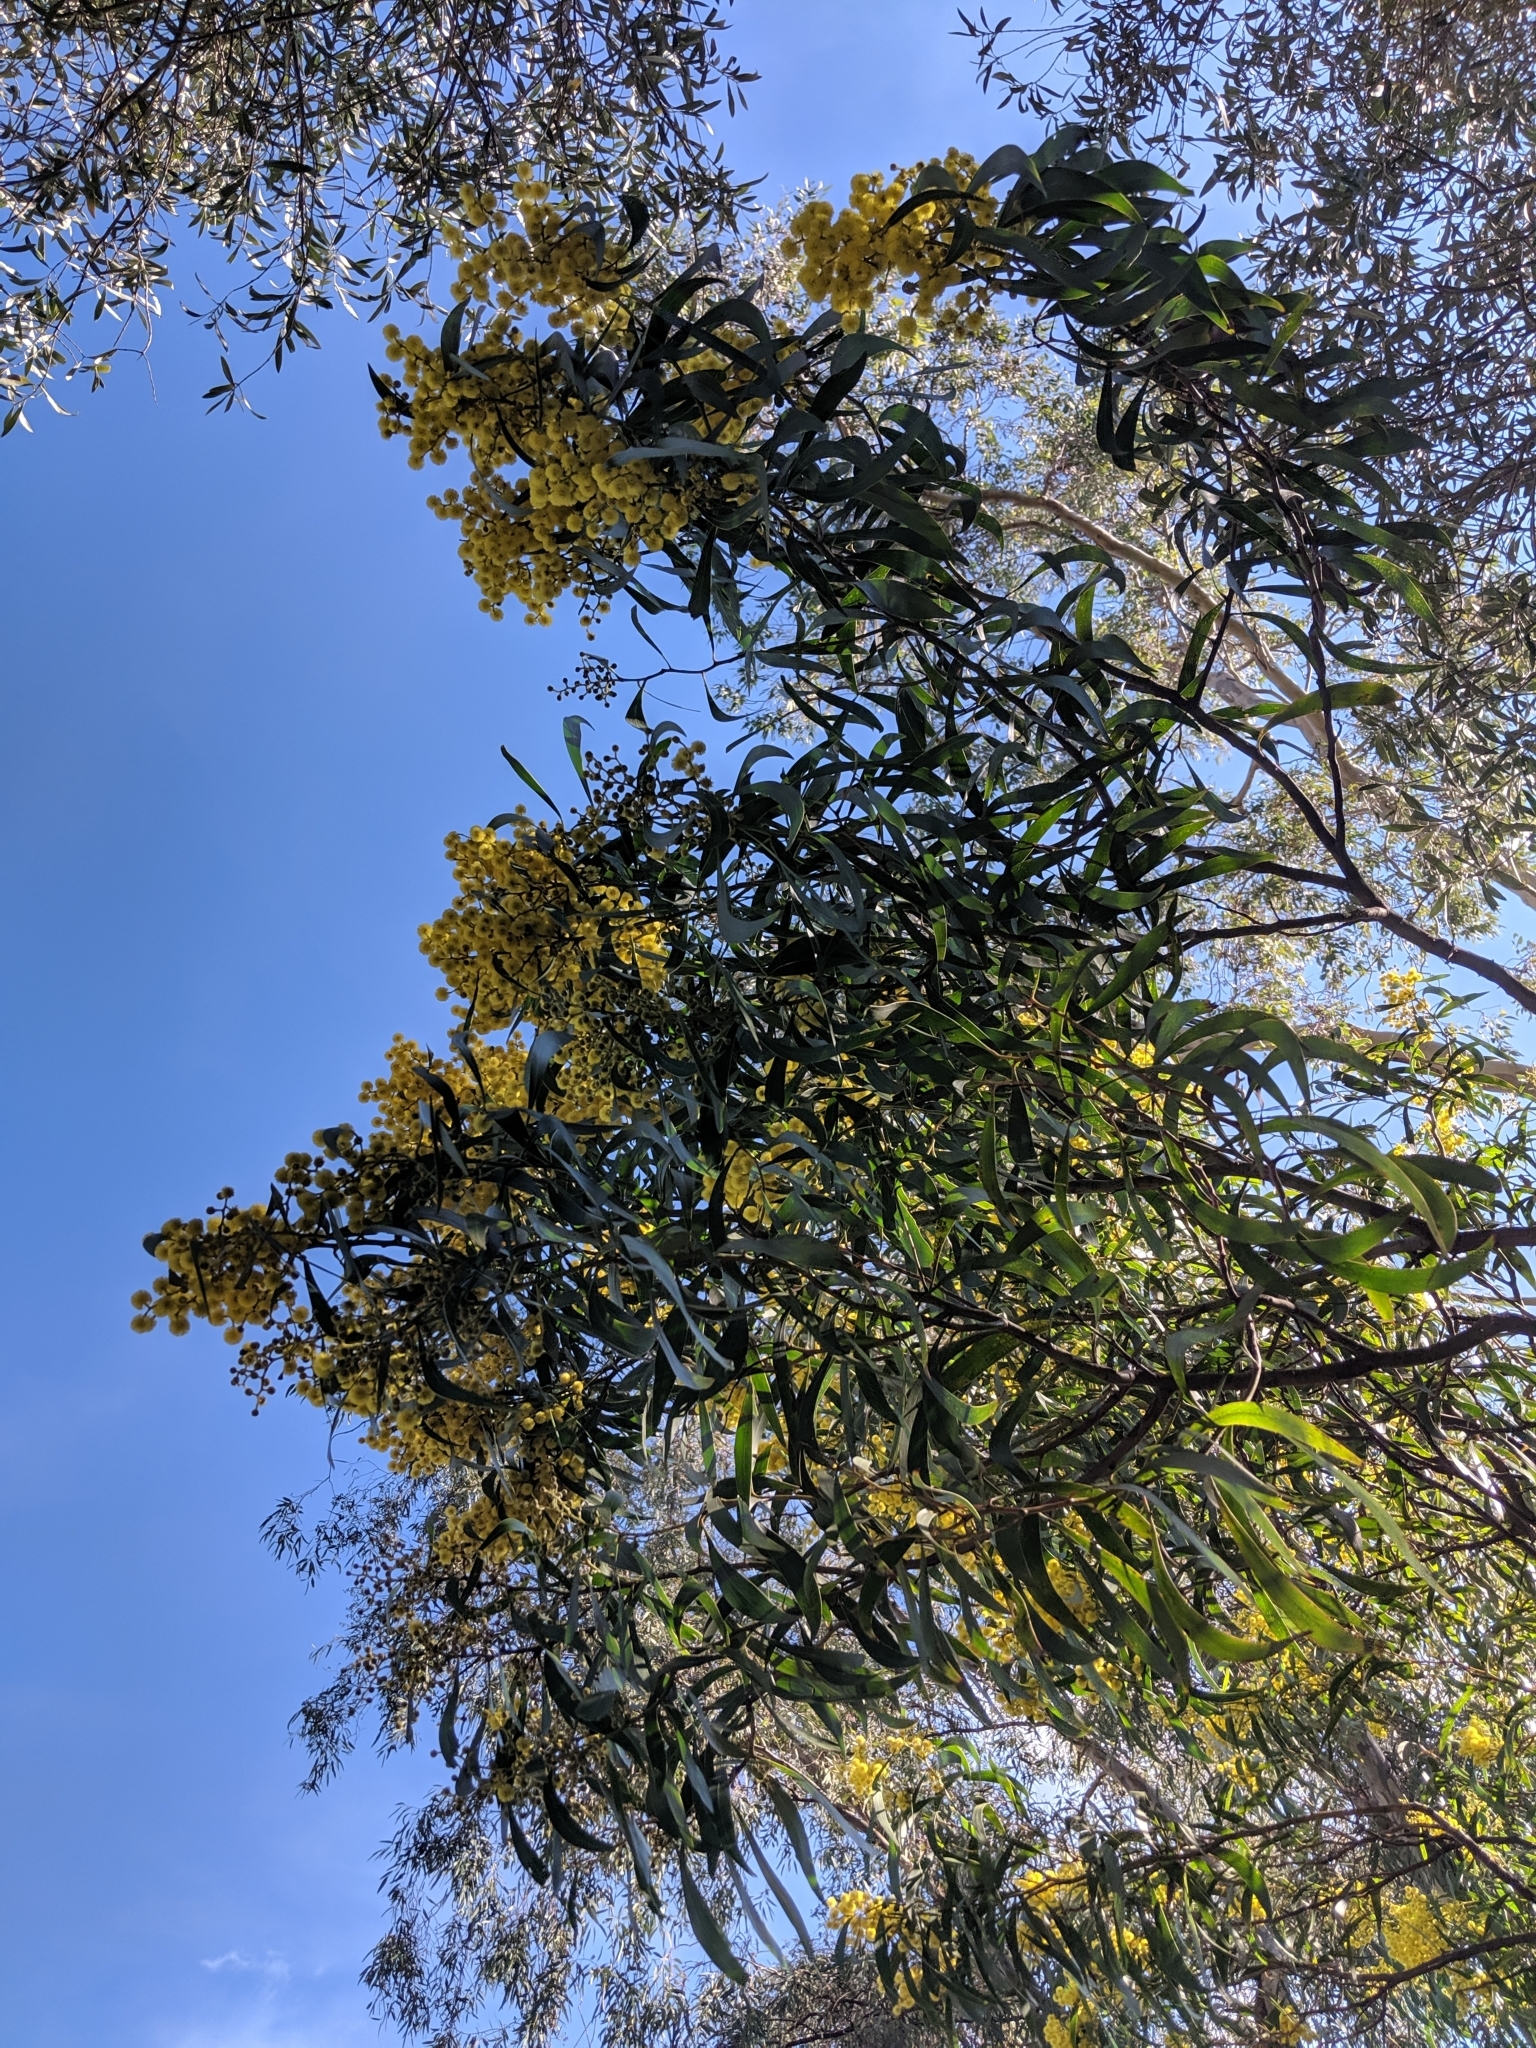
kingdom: Plantae
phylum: Tracheophyta
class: Magnoliopsida
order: Fabales
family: Fabaceae
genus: Acacia
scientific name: Acacia pycnantha
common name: Golden wattle
